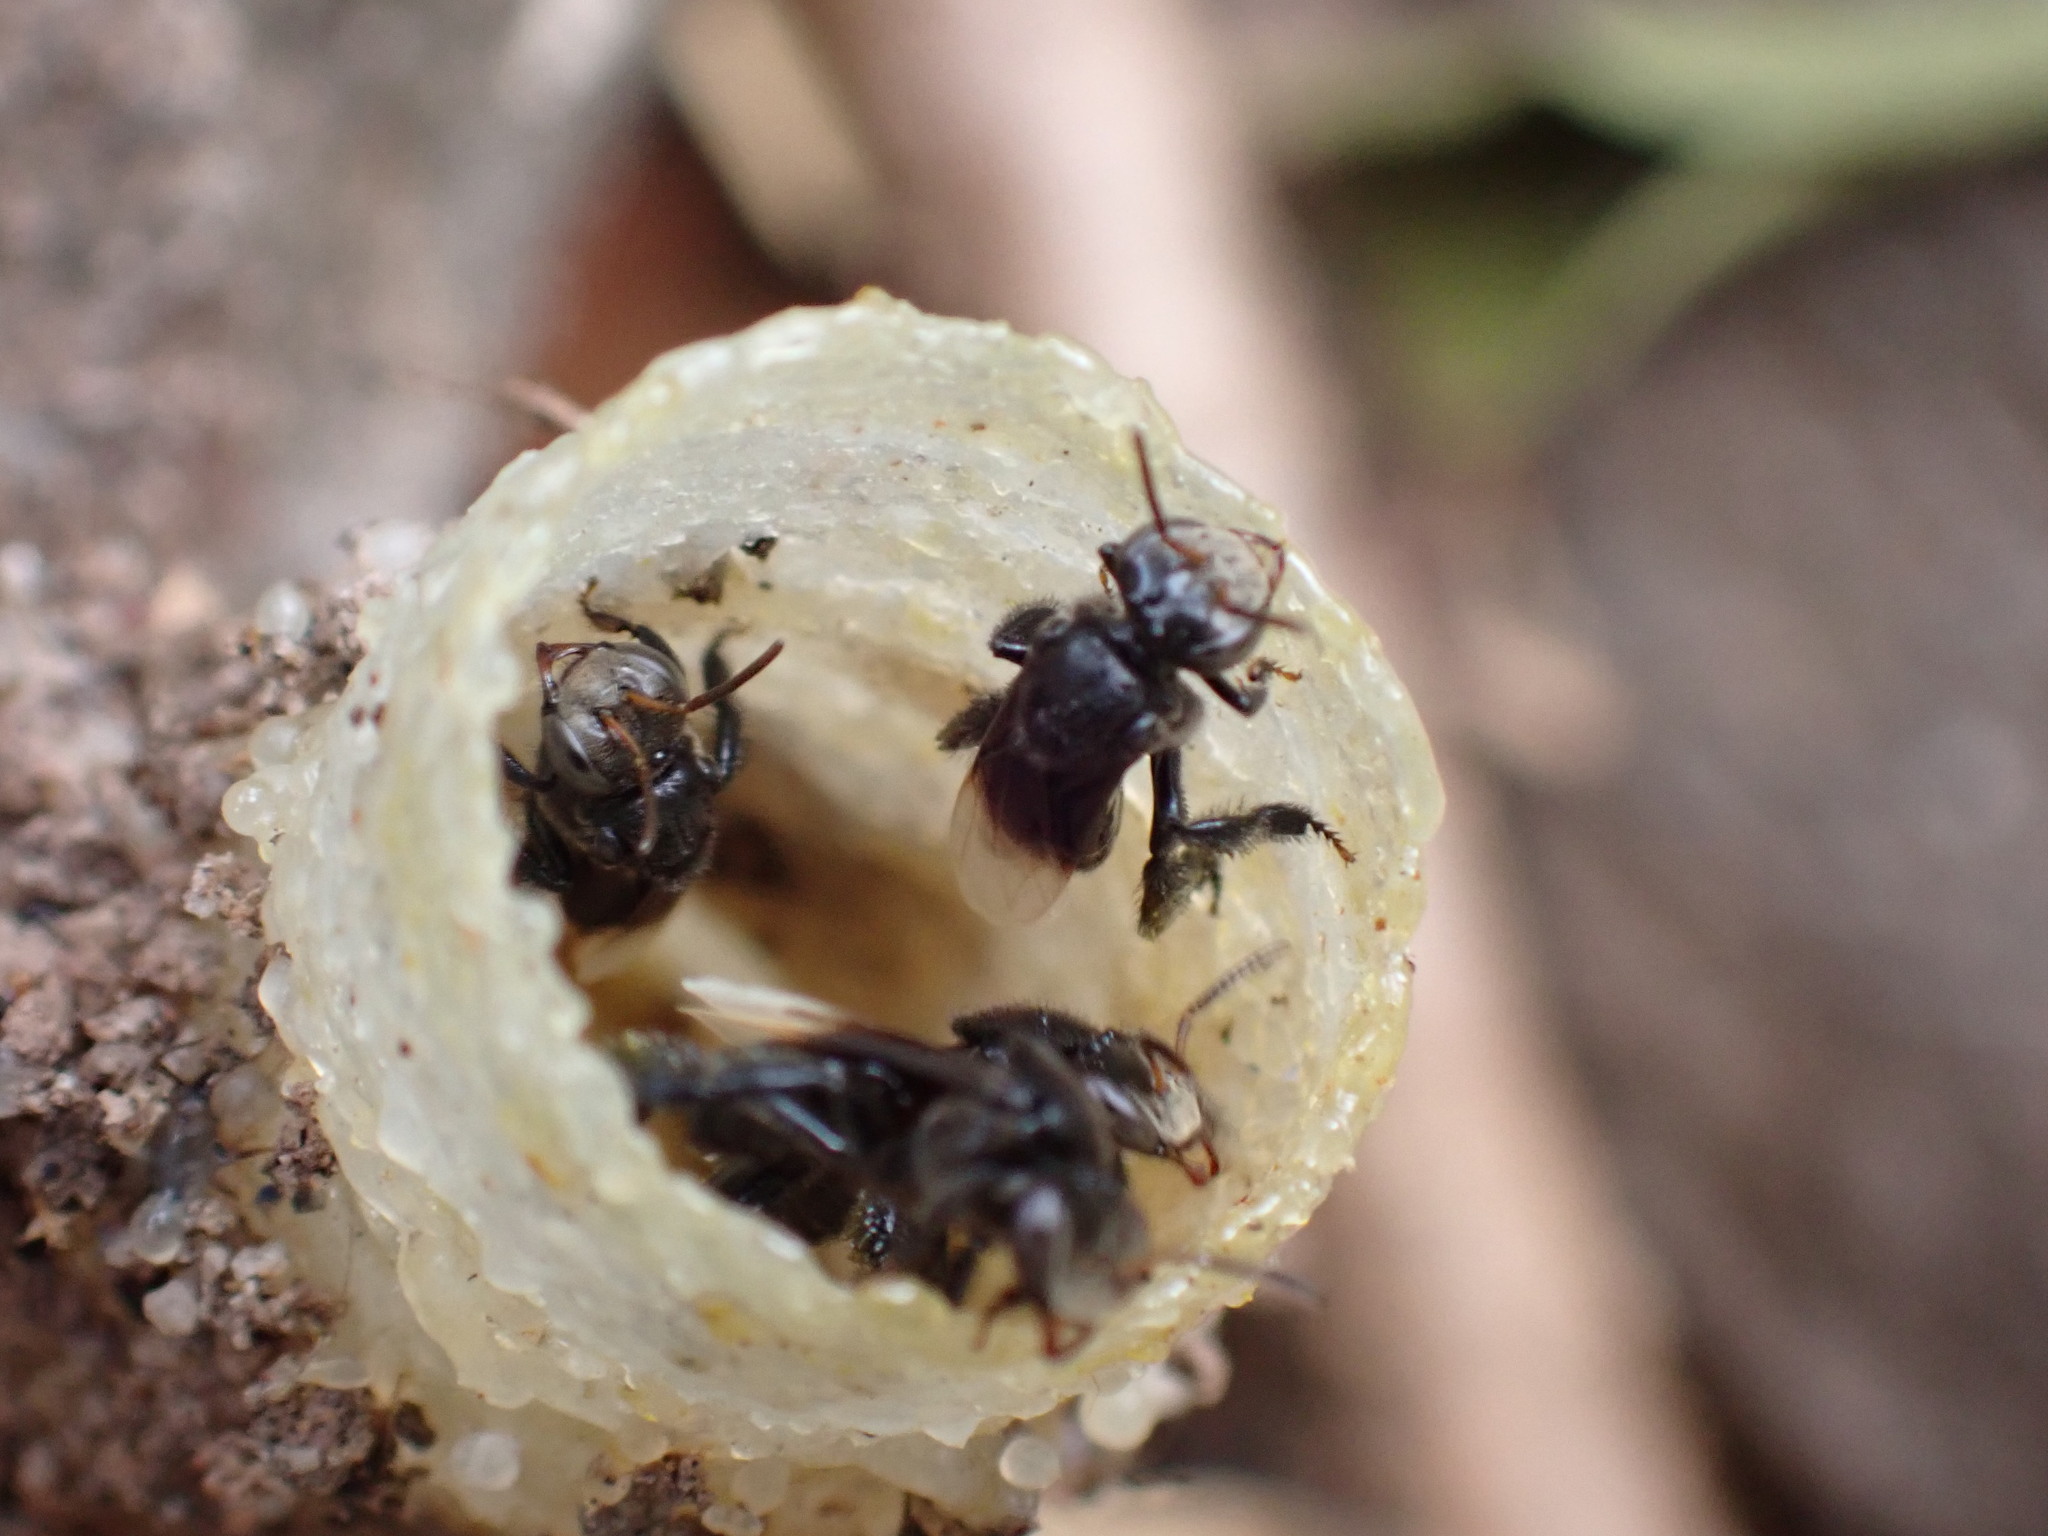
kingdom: Animalia
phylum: Arthropoda
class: Insecta
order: Hymenoptera
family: Apidae
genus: Tetragonula
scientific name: Tetragonula collina
